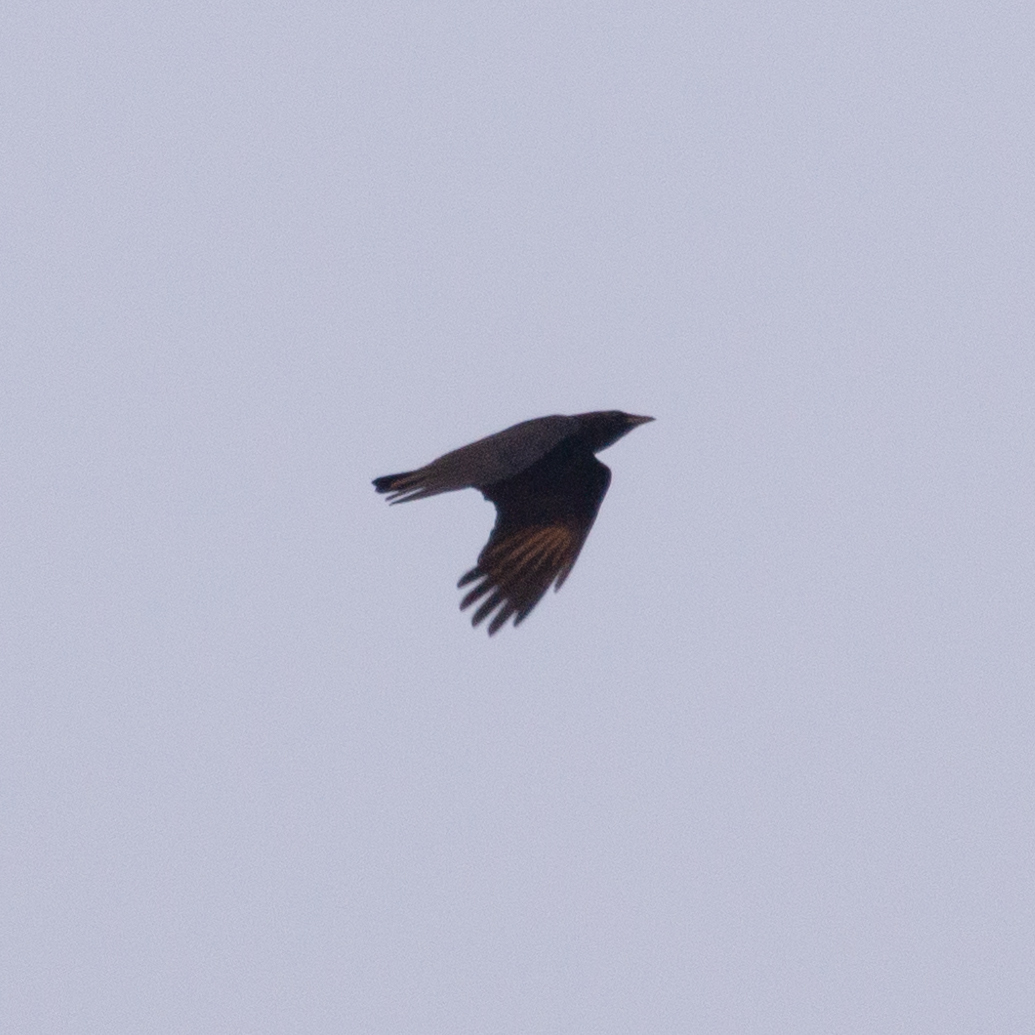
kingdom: Animalia
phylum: Chordata
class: Aves
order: Passeriformes
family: Corvidae
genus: Corvus
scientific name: Corvus corone
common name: Carrion crow
